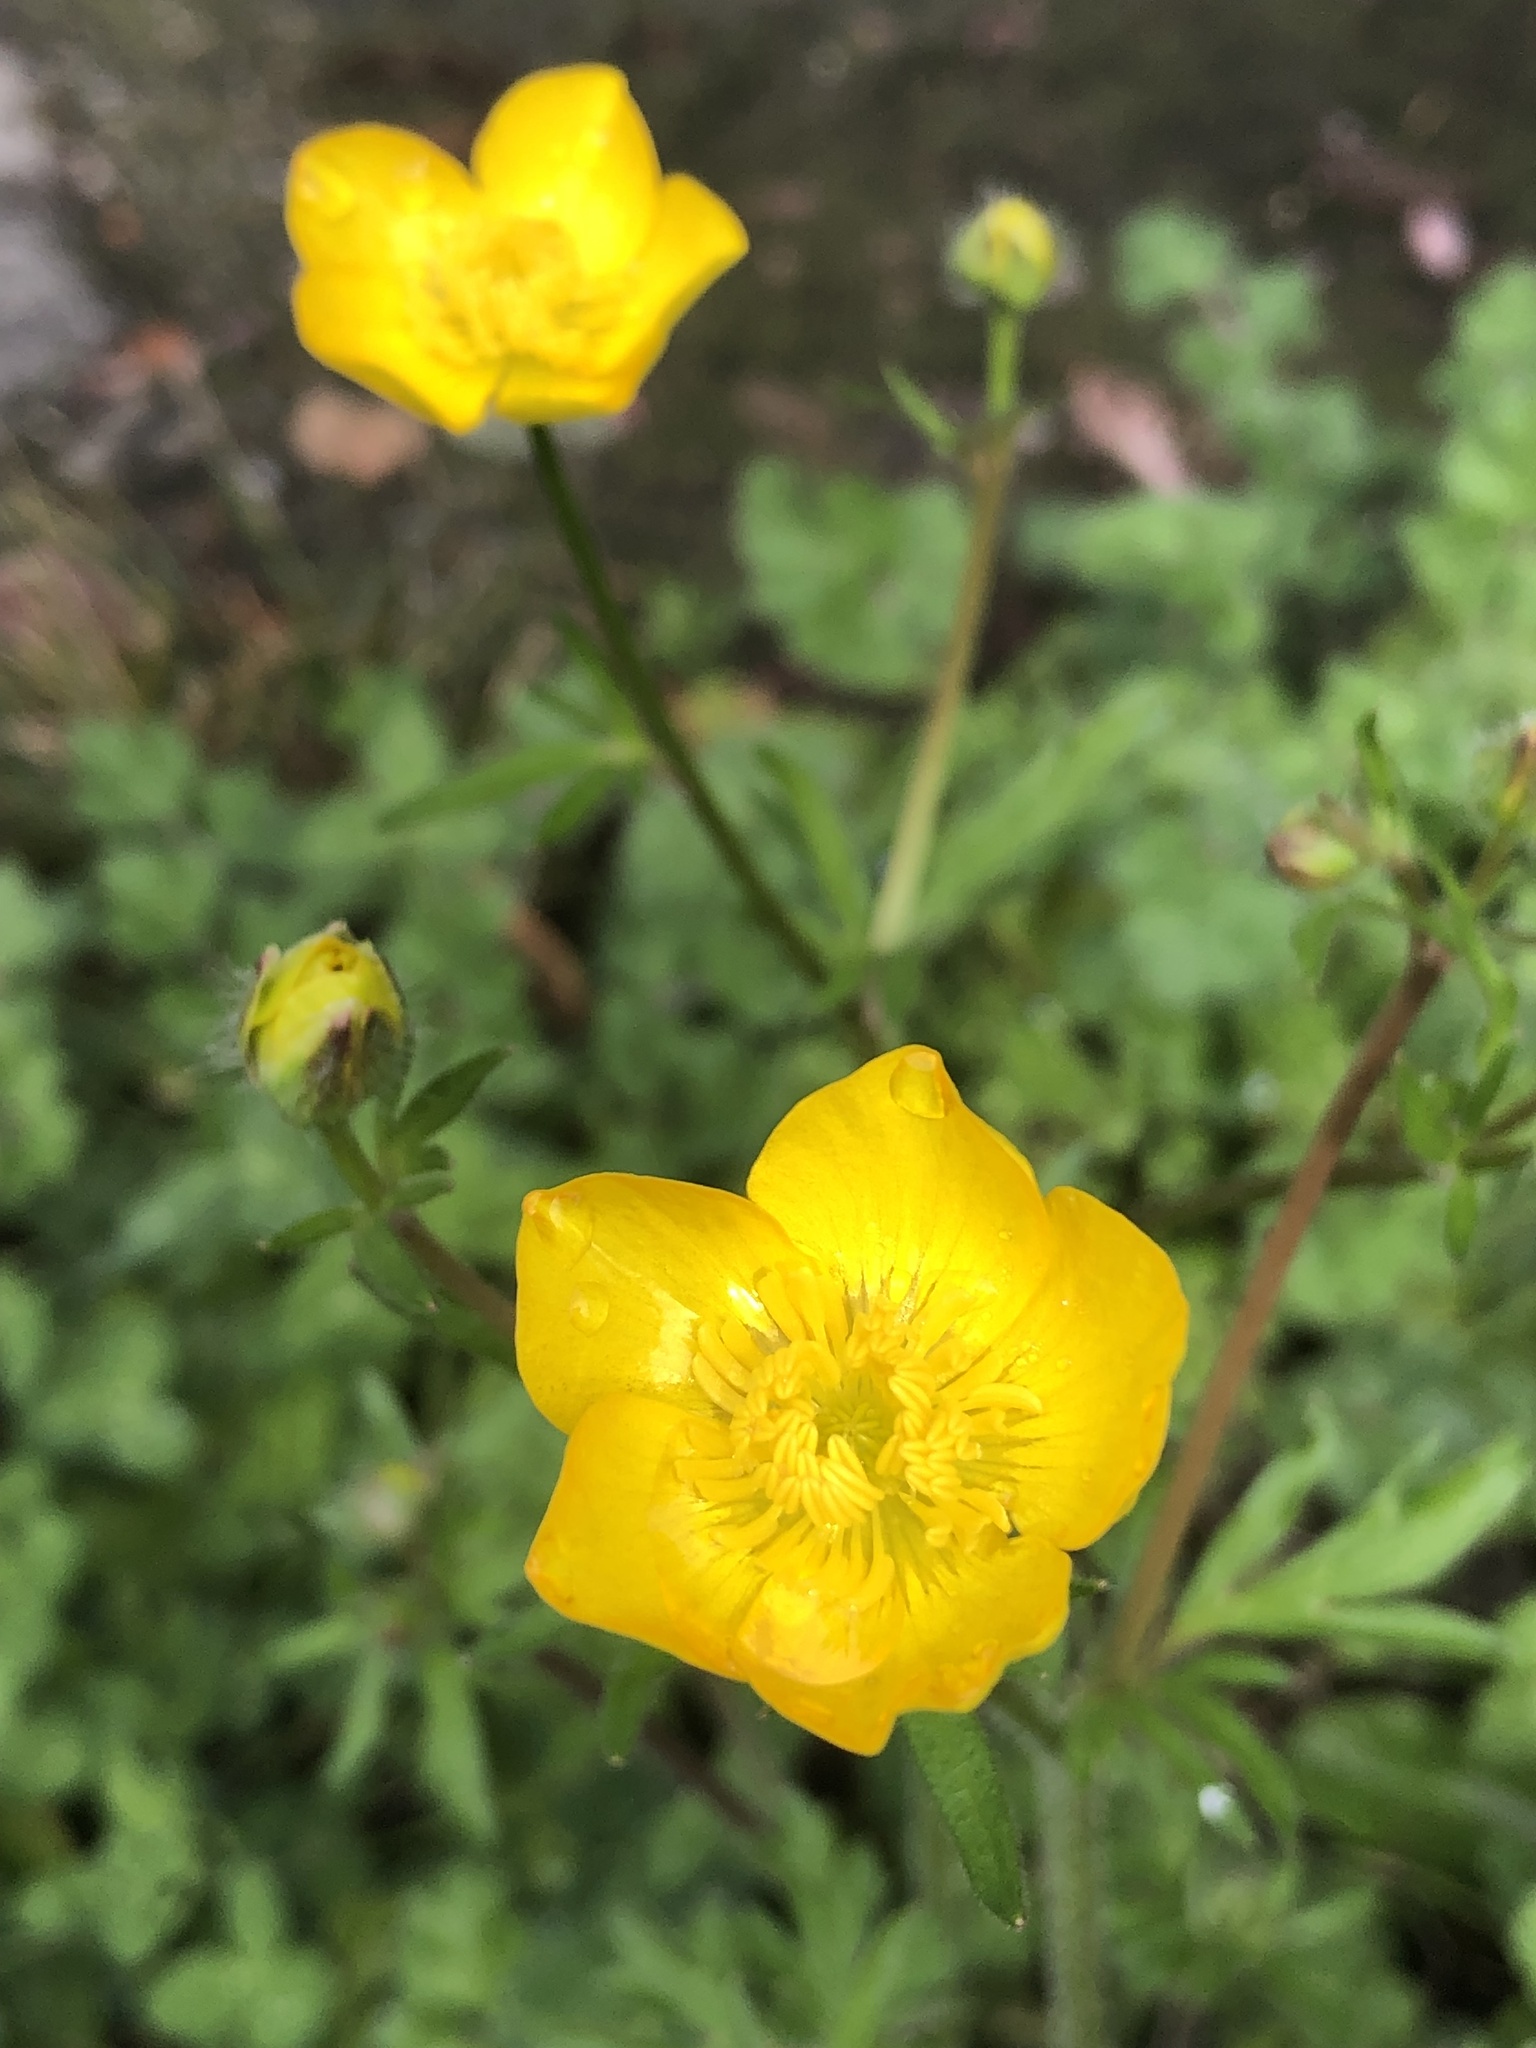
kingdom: Plantae
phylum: Tracheophyta
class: Magnoliopsida
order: Ranunculales
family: Ranunculaceae
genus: Ranunculus
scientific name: Ranunculus bulbosus
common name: Bulbous buttercup
